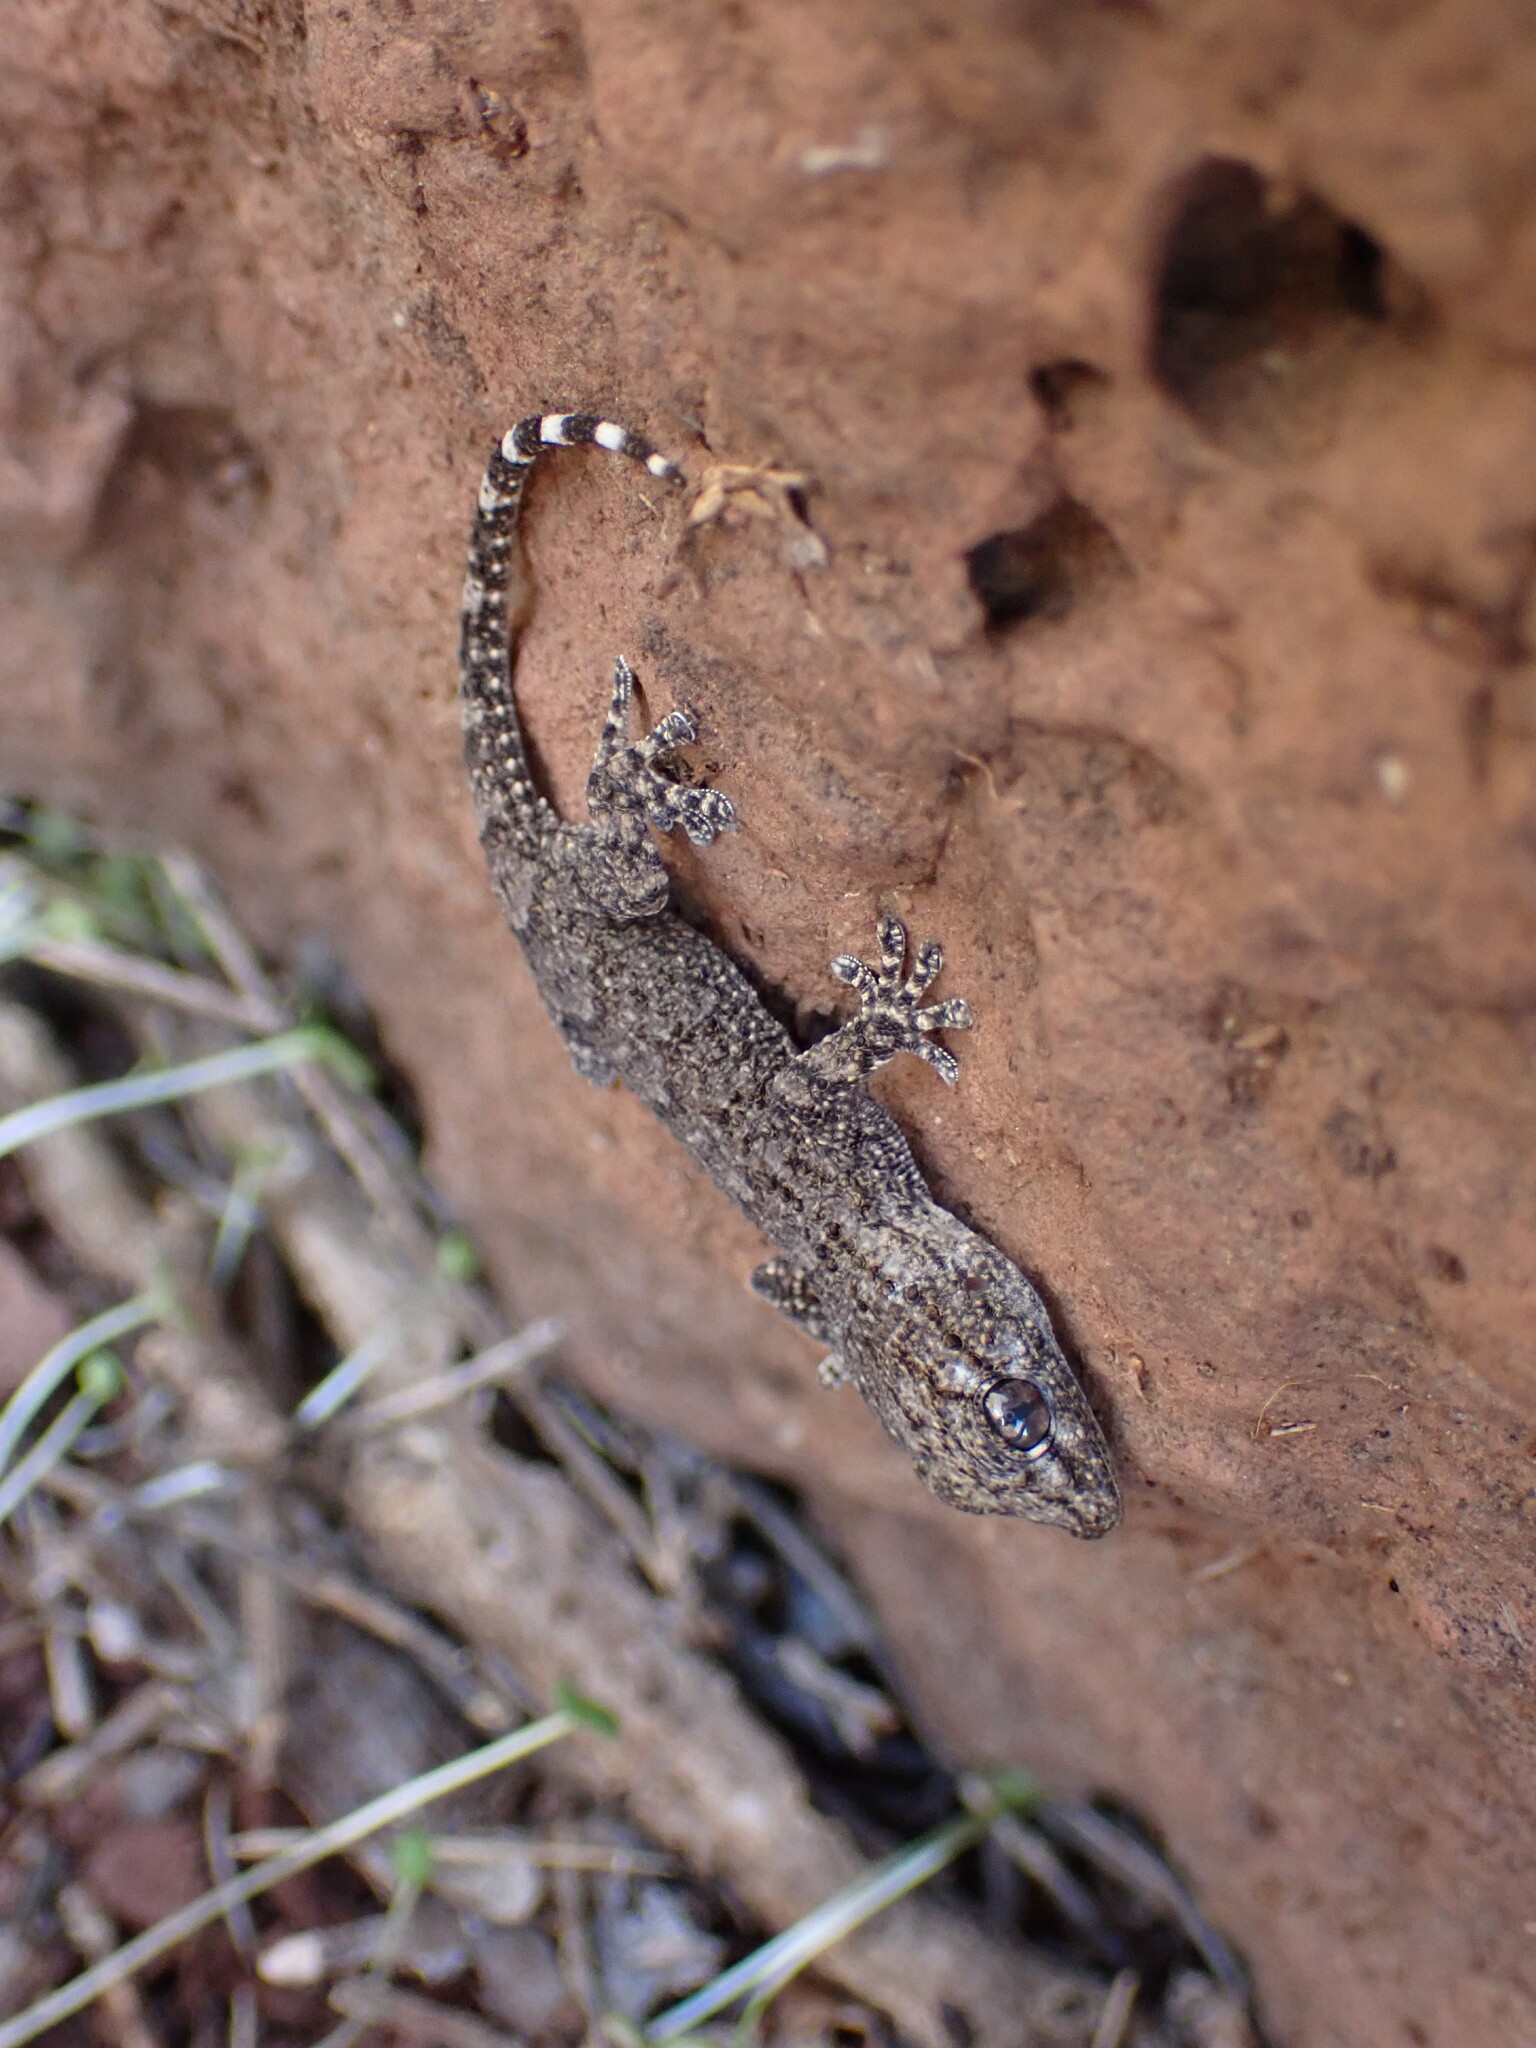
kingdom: Animalia
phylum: Chordata
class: Squamata
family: Phyllodactylidae
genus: Tarentola
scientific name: Tarentola mauritanica
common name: Moorish gecko
